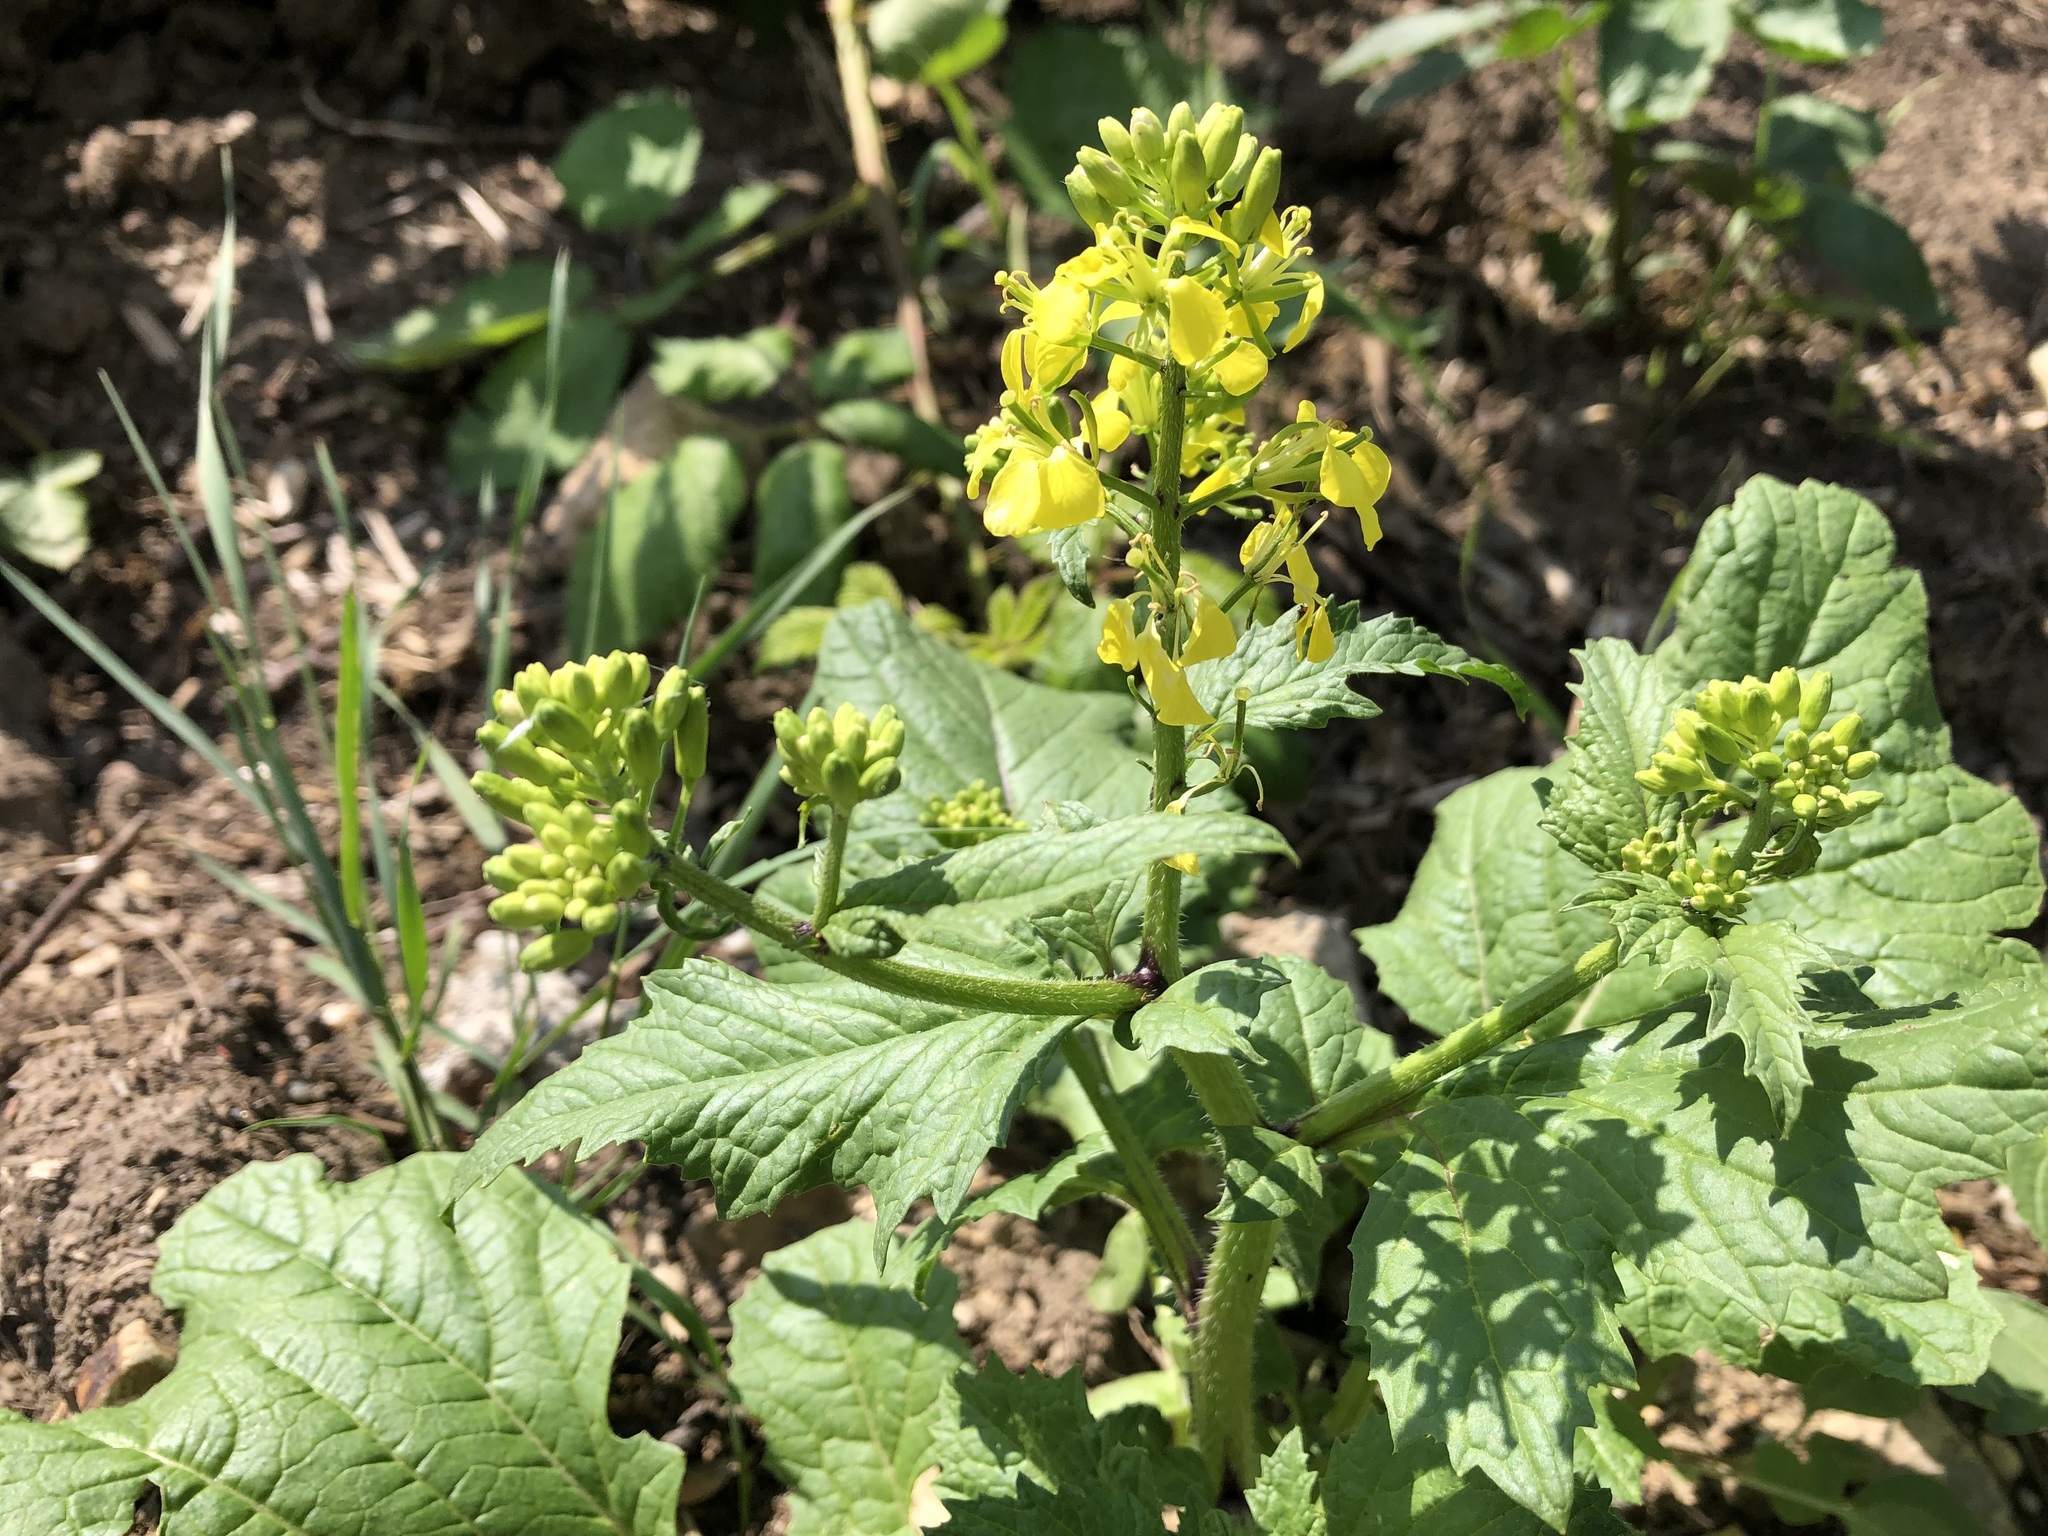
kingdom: Plantae
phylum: Tracheophyta
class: Magnoliopsida
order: Brassicales
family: Brassicaceae
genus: Sinapis
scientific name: Sinapis arvensis
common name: Charlock
